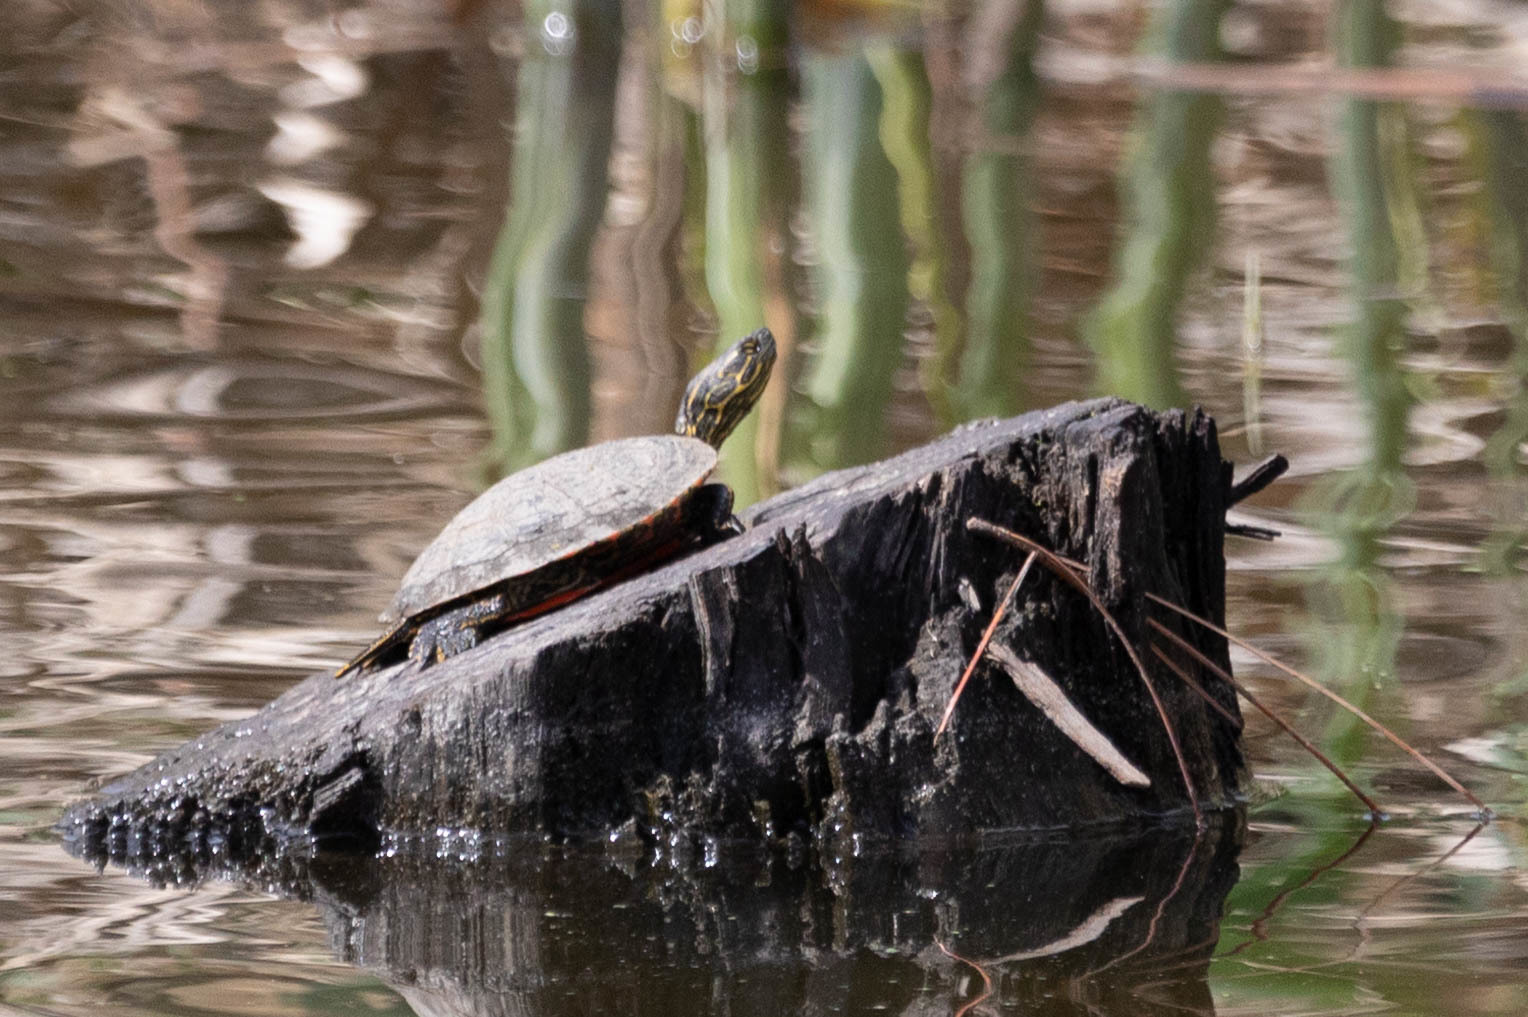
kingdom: Animalia
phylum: Chordata
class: Testudines
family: Emydidae
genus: Chrysemys
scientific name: Chrysemys picta
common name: Painted turtle
